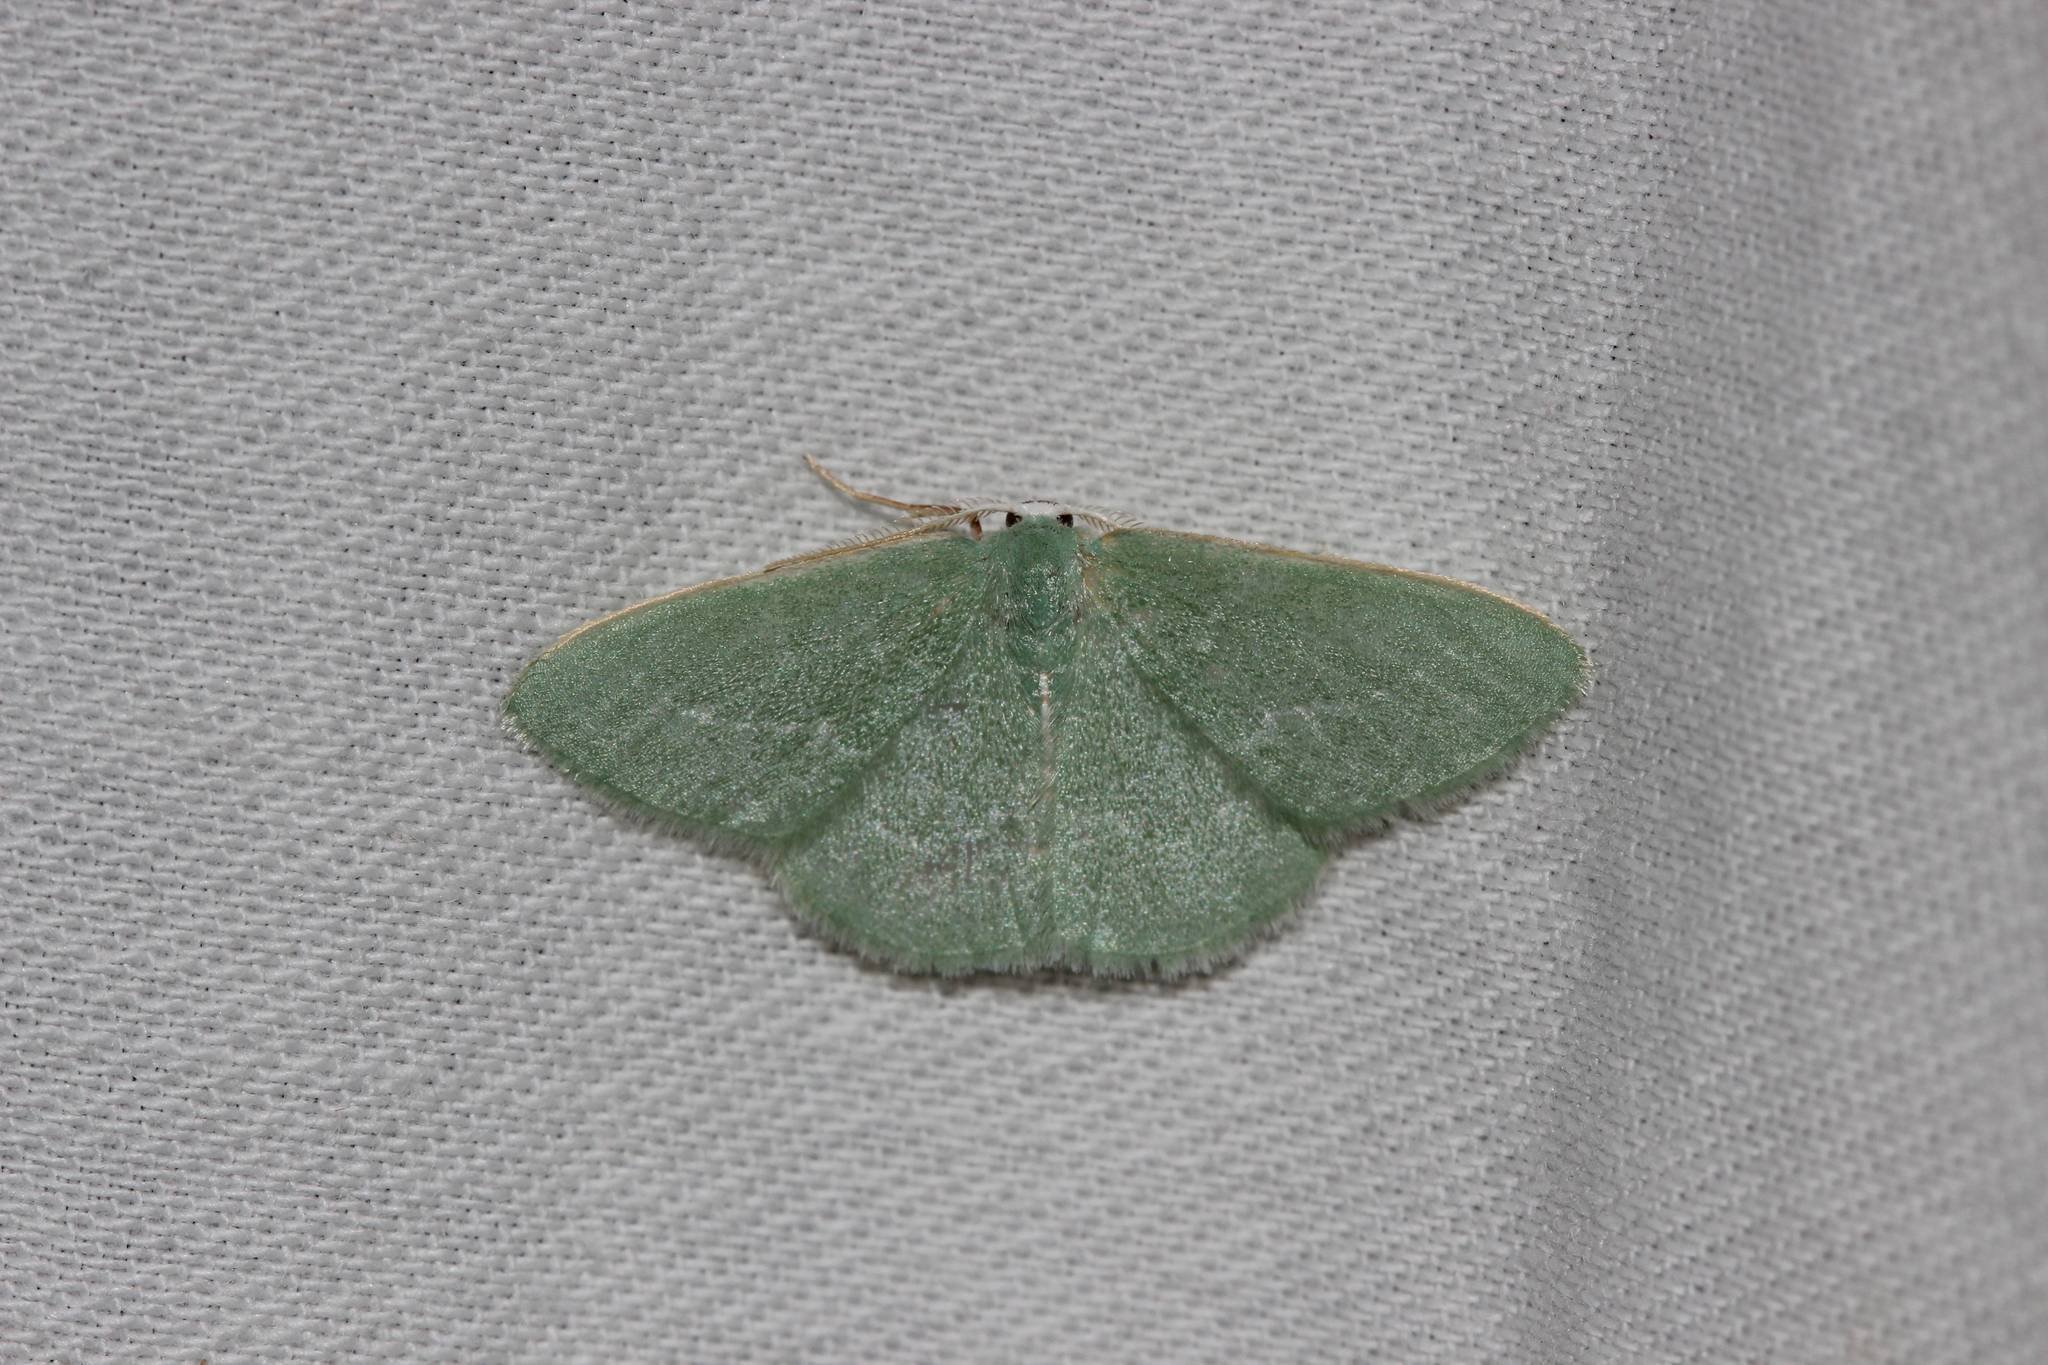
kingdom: Animalia
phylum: Arthropoda
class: Insecta
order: Lepidoptera
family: Geometridae
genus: Xenochlorodes
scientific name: Xenochlorodes olympiaria
